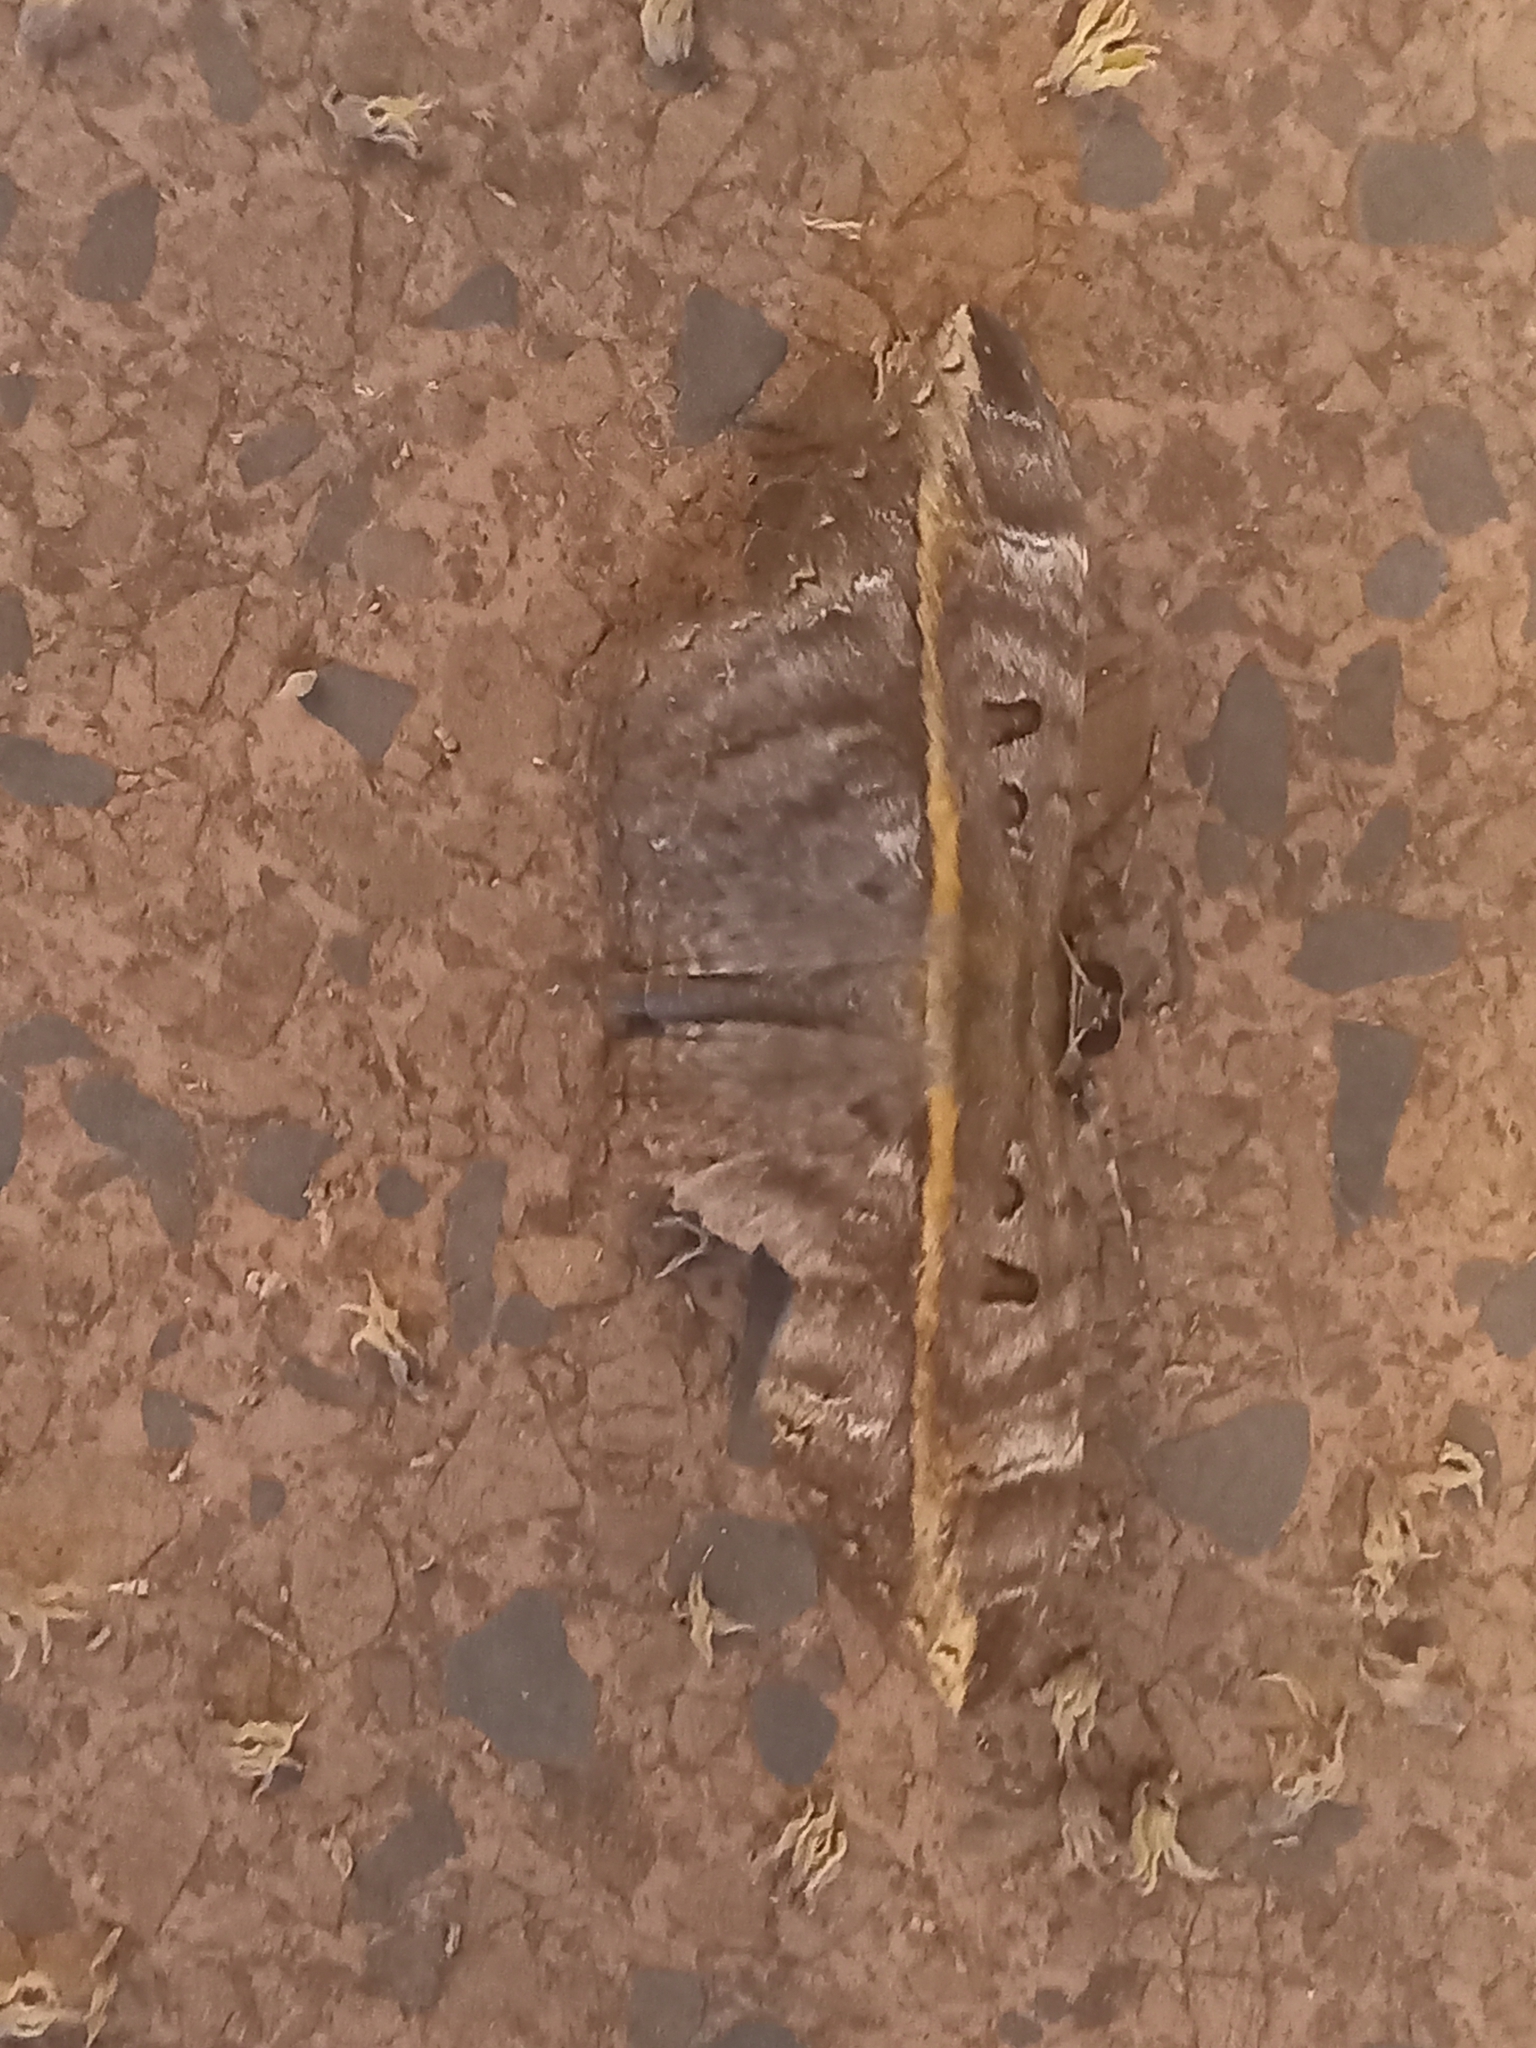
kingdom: Animalia
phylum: Arthropoda
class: Insecta
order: Lepidoptera
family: Erebidae
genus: Hemeroblemma
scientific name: Hemeroblemma ochrolinea
